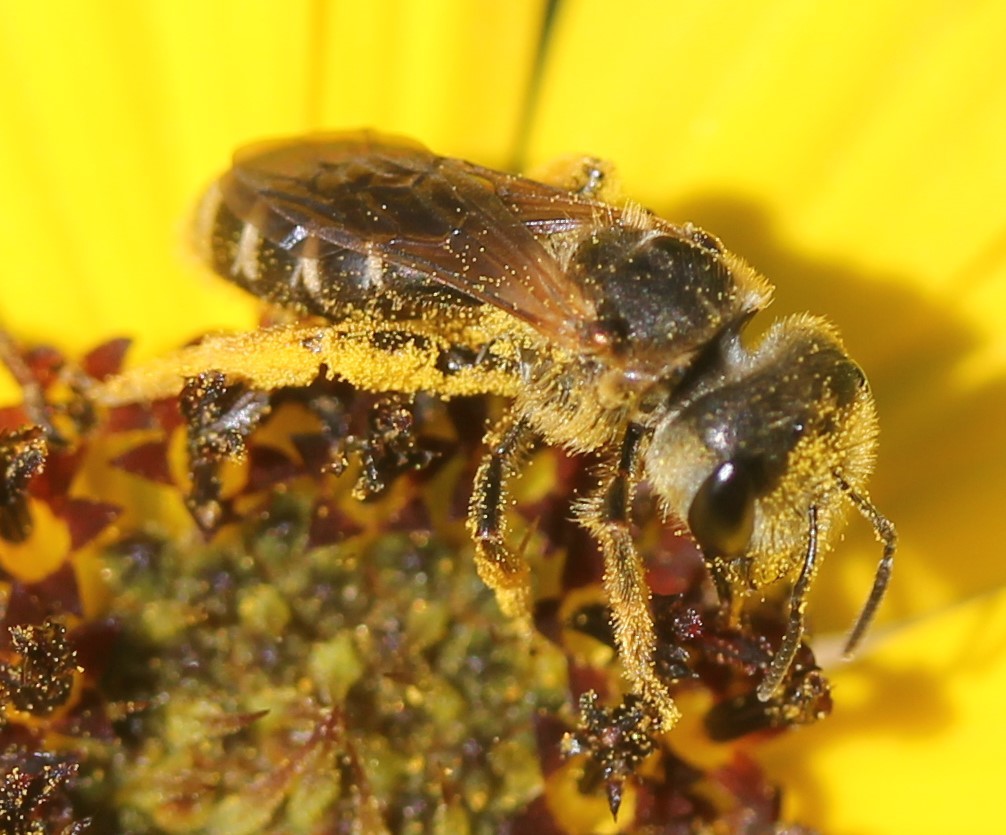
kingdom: Animalia
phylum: Arthropoda
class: Insecta
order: Hymenoptera
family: Halictidae
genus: Halictus
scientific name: Halictus poeyi
